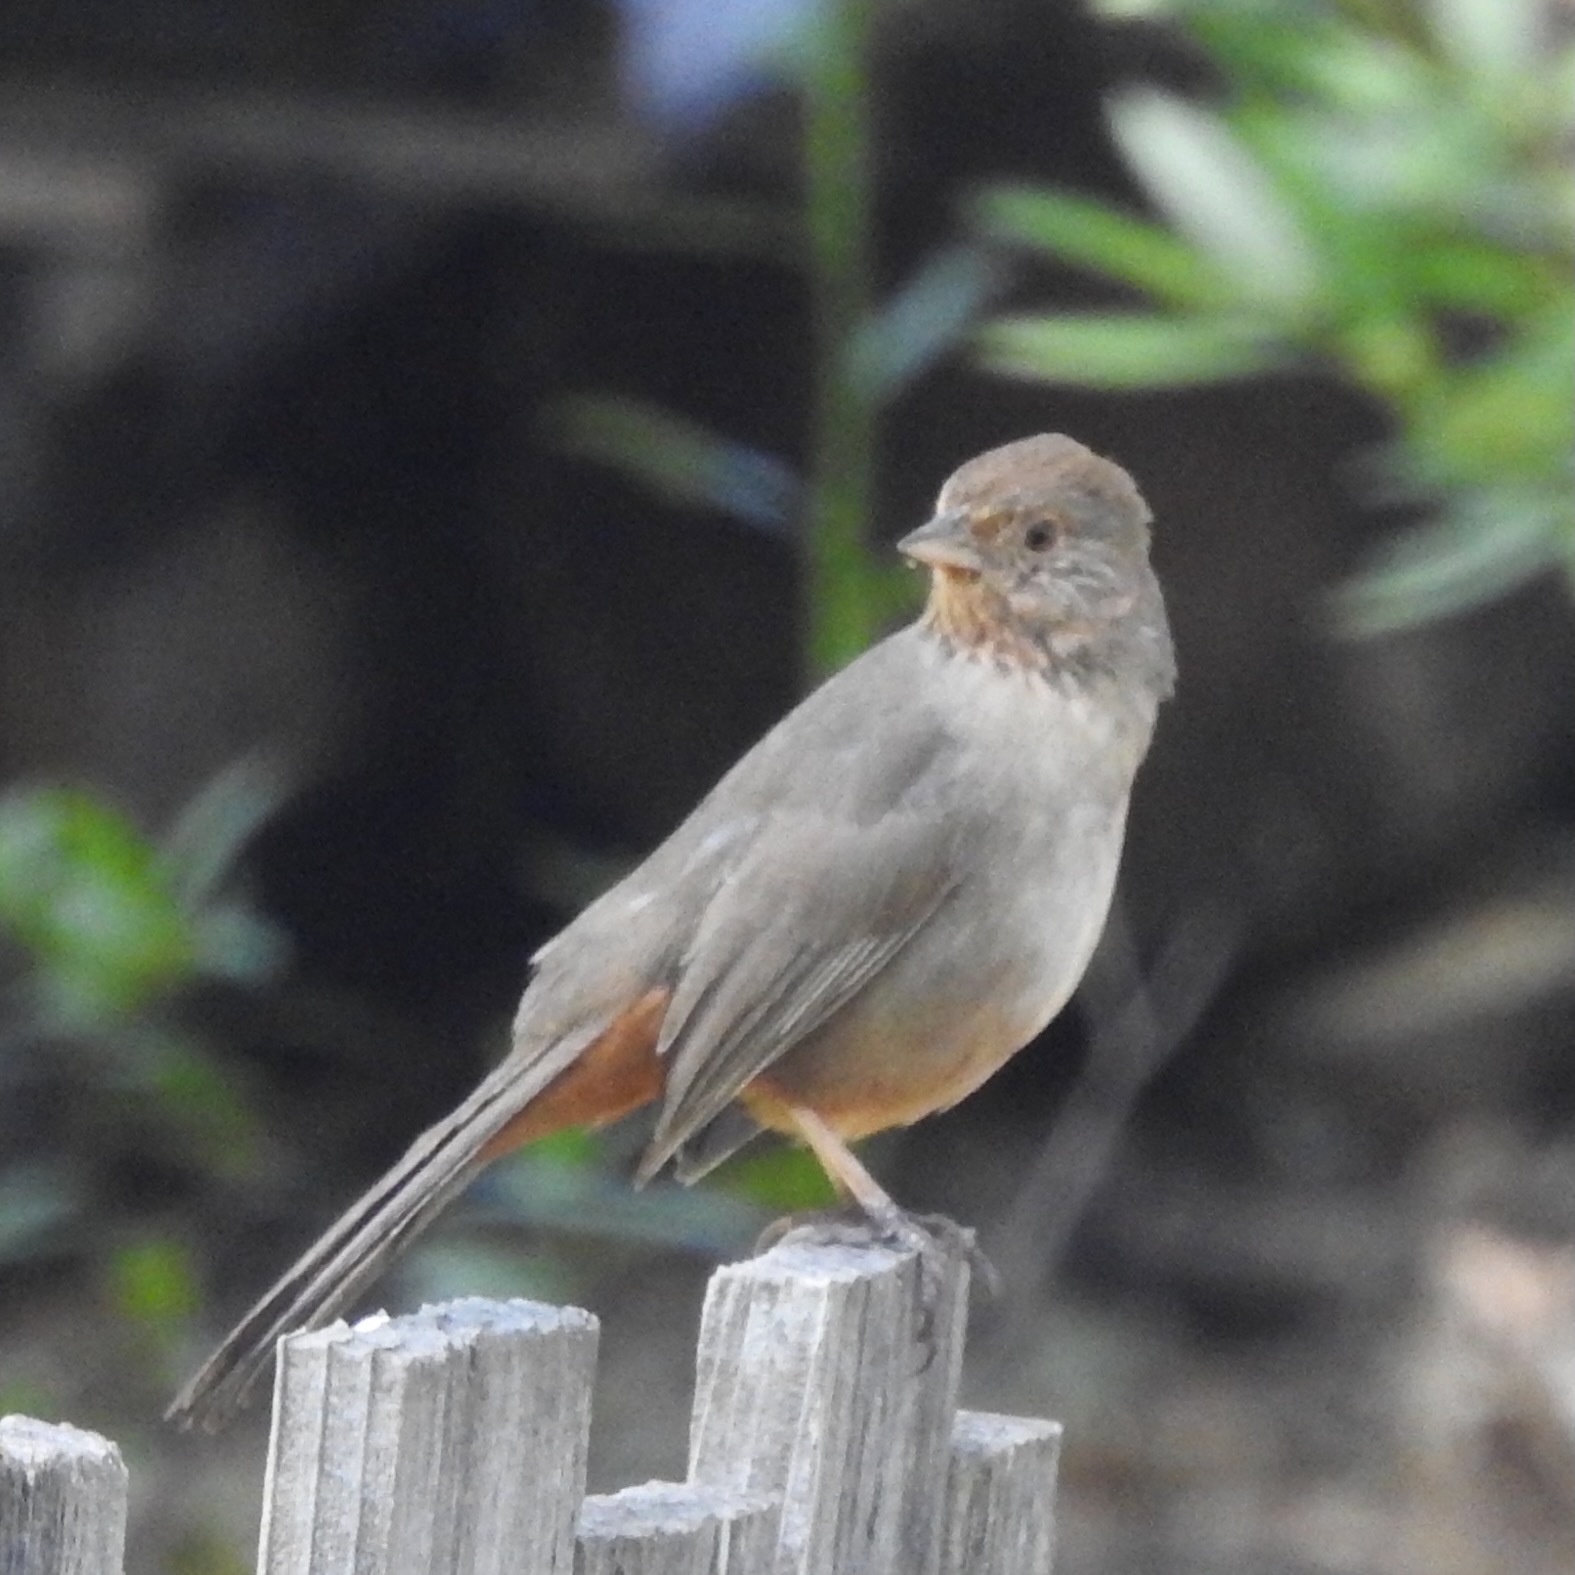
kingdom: Animalia
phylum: Chordata
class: Aves
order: Passeriformes
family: Passerellidae
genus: Melozone
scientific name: Melozone crissalis
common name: California towhee
